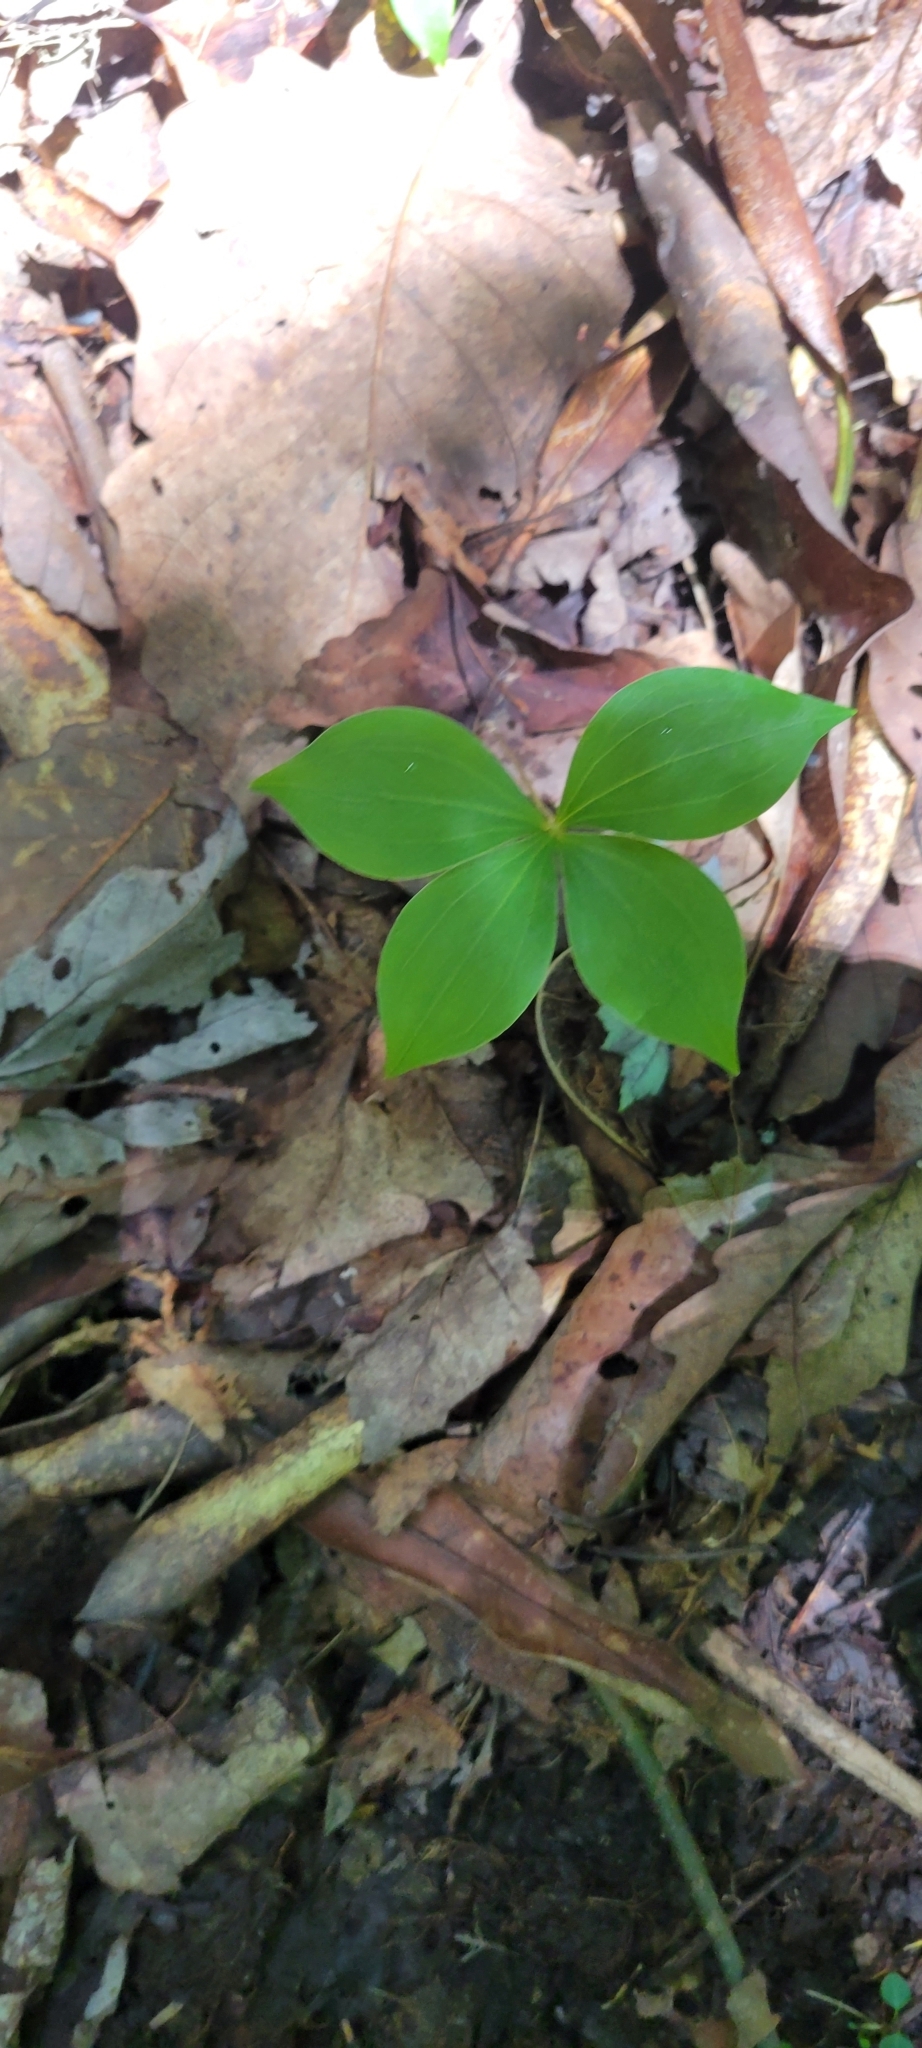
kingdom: Plantae
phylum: Tracheophyta
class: Liliopsida
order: Liliales
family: Liliaceae
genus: Medeola
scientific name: Medeola virginiana
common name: Indian cucumber-root
